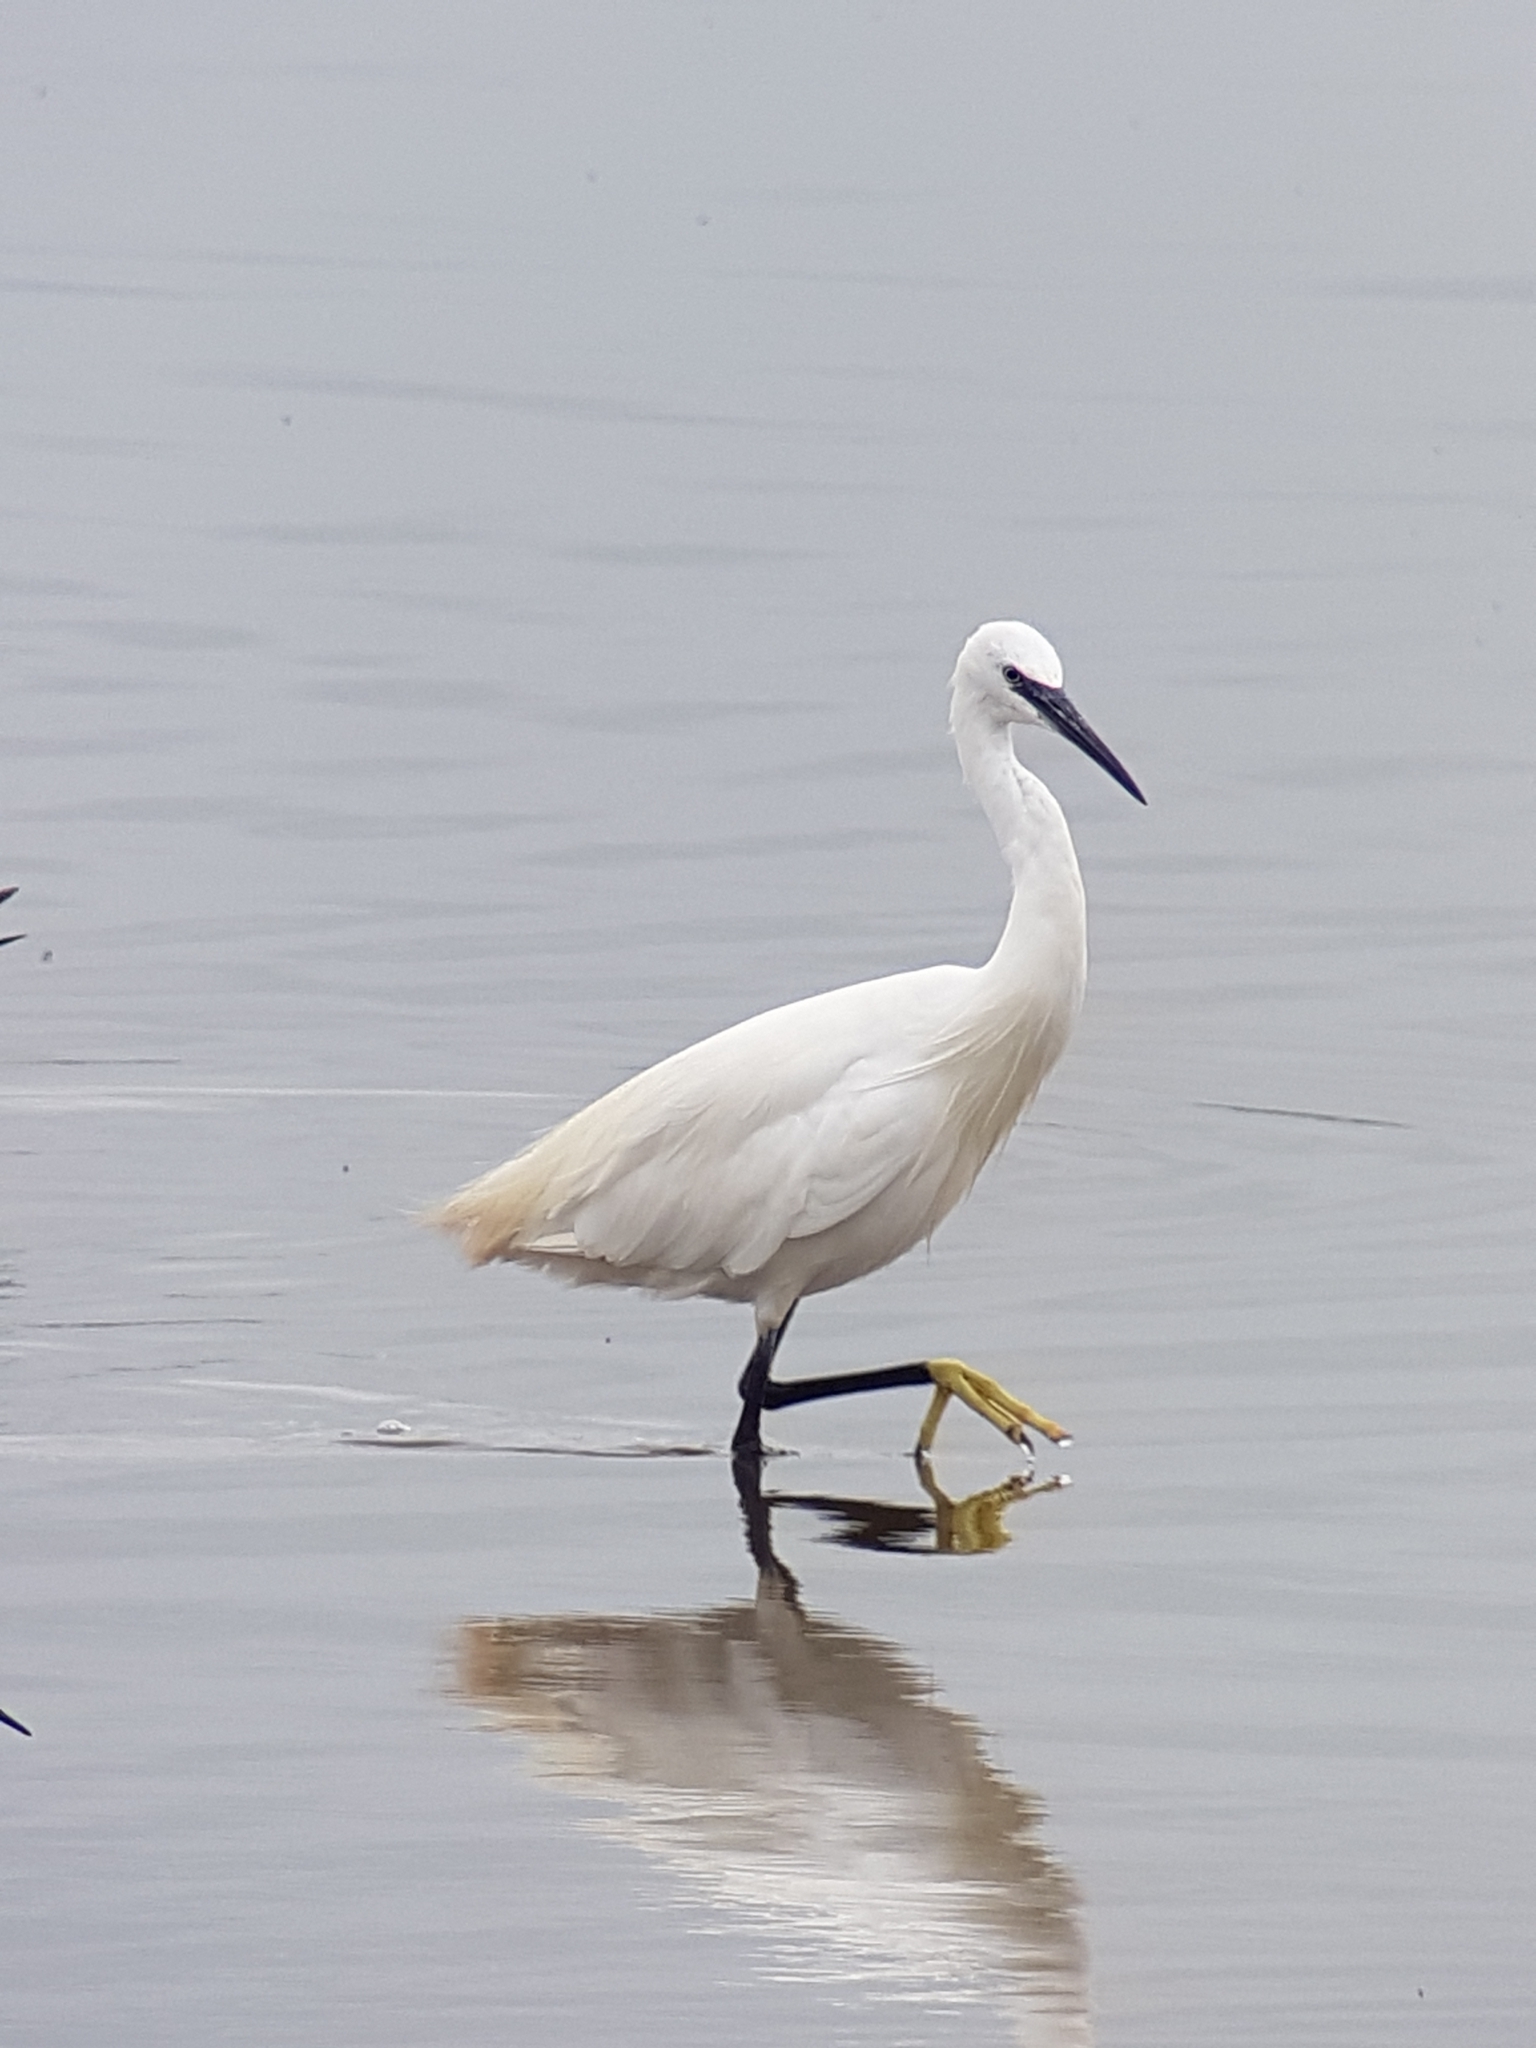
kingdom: Animalia
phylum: Chordata
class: Aves
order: Pelecaniformes
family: Ardeidae
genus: Egretta
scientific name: Egretta garzetta
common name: Little egret
